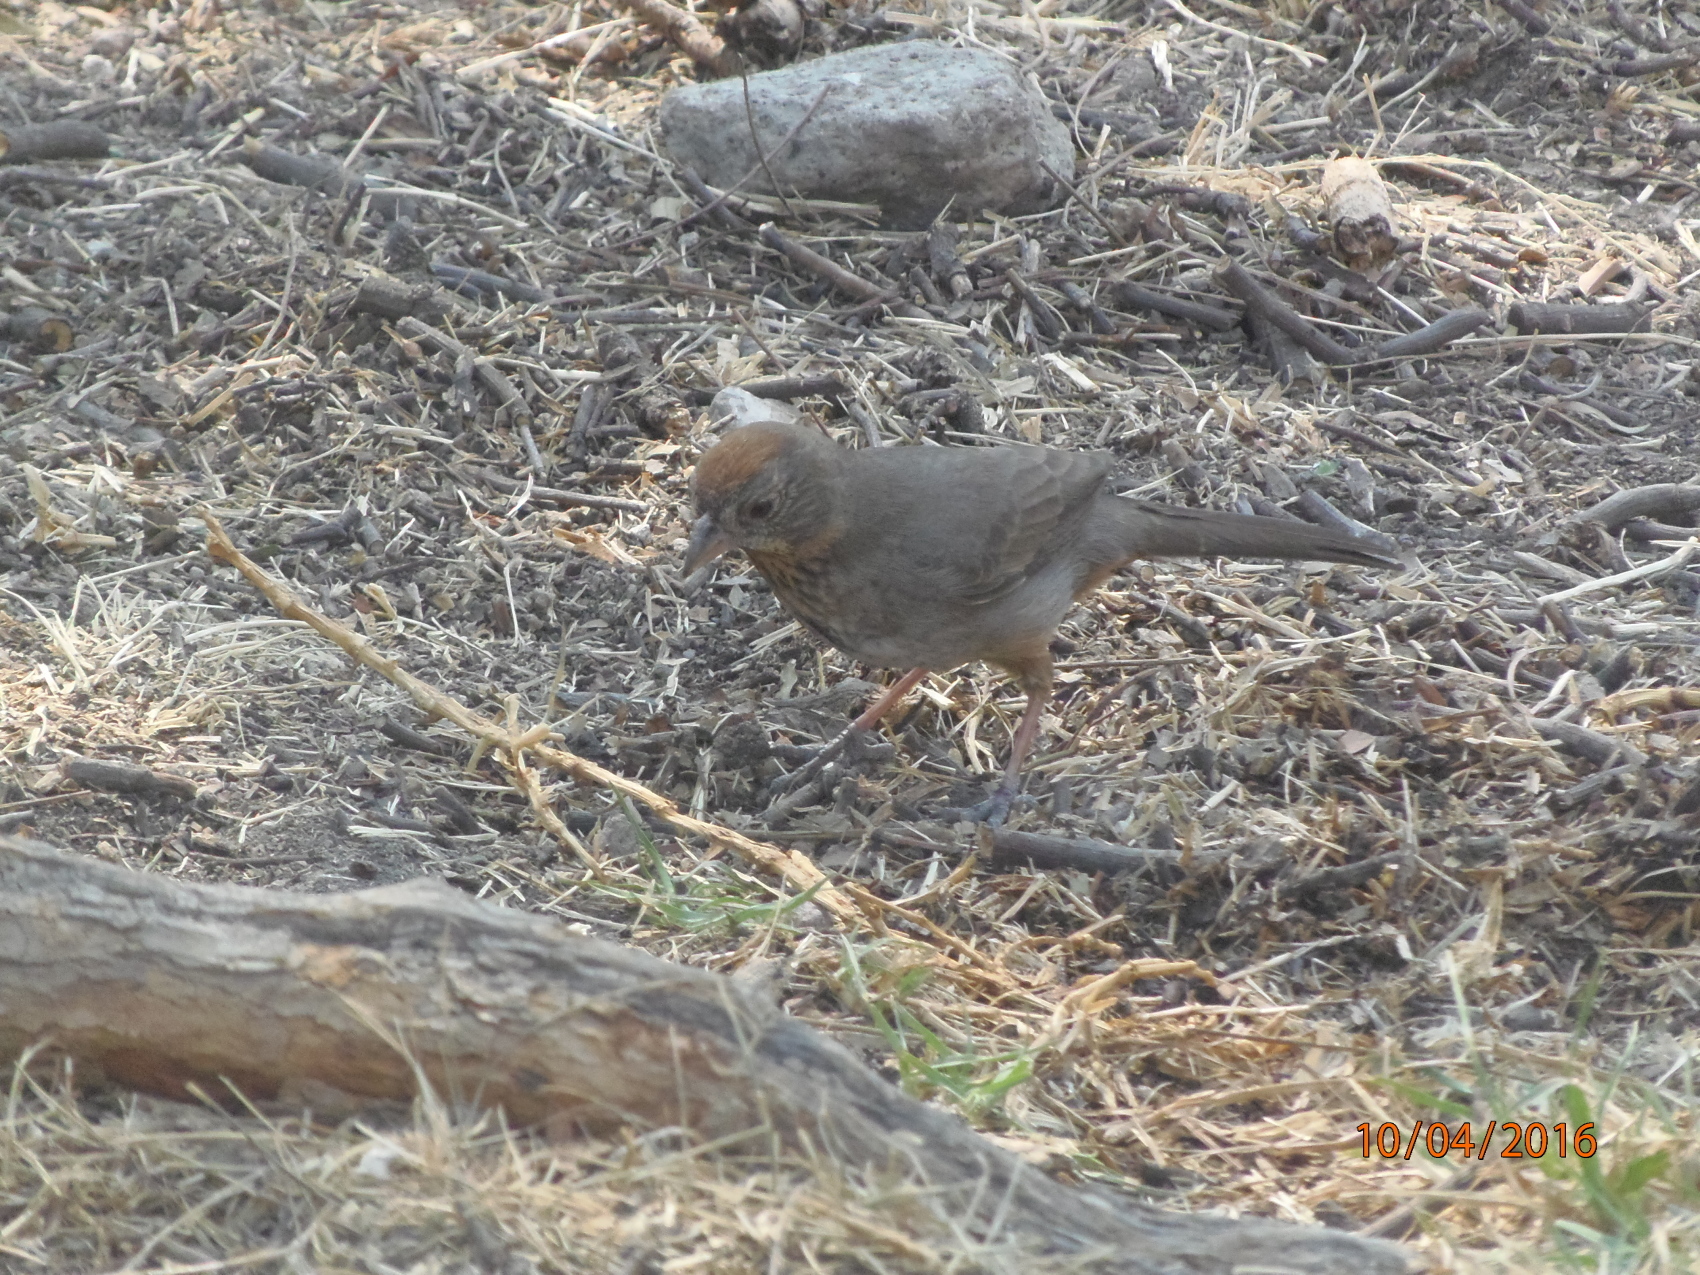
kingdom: Animalia
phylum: Chordata
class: Aves
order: Passeriformes
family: Passerellidae
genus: Melozone
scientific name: Melozone fusca
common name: Canyon towhee
